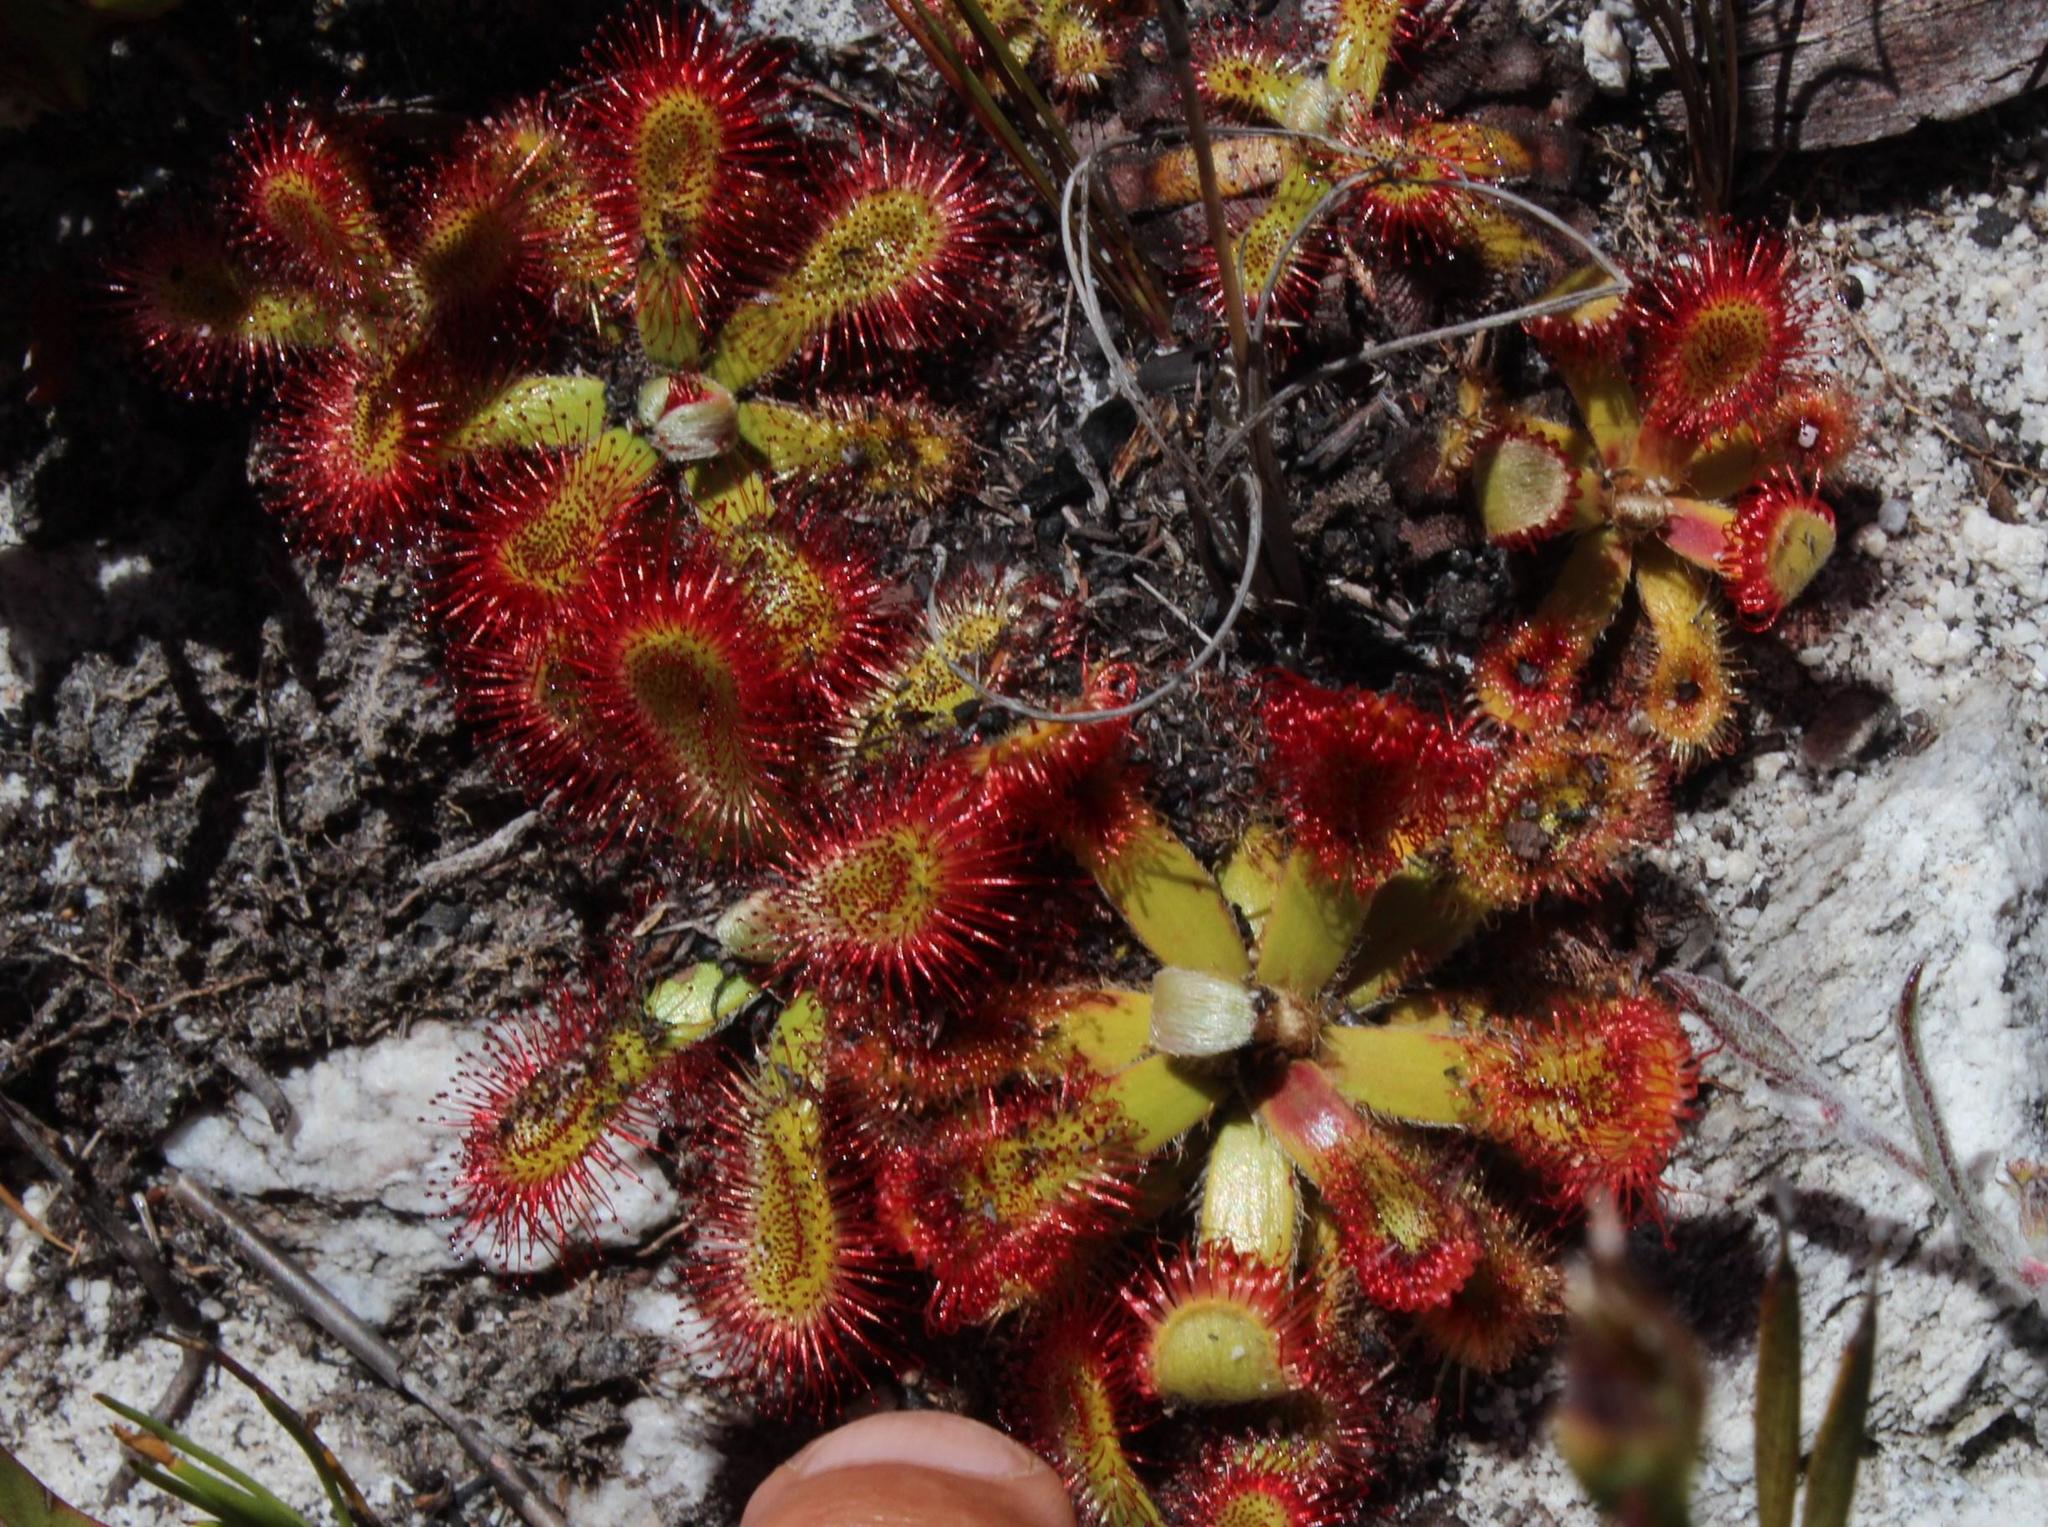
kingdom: Plantae
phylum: Tracheophyta
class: Magnoliopsida
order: Caryophyllales
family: Droseraceae
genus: Drosera
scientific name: Drosera aliciae
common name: Alice sundew
